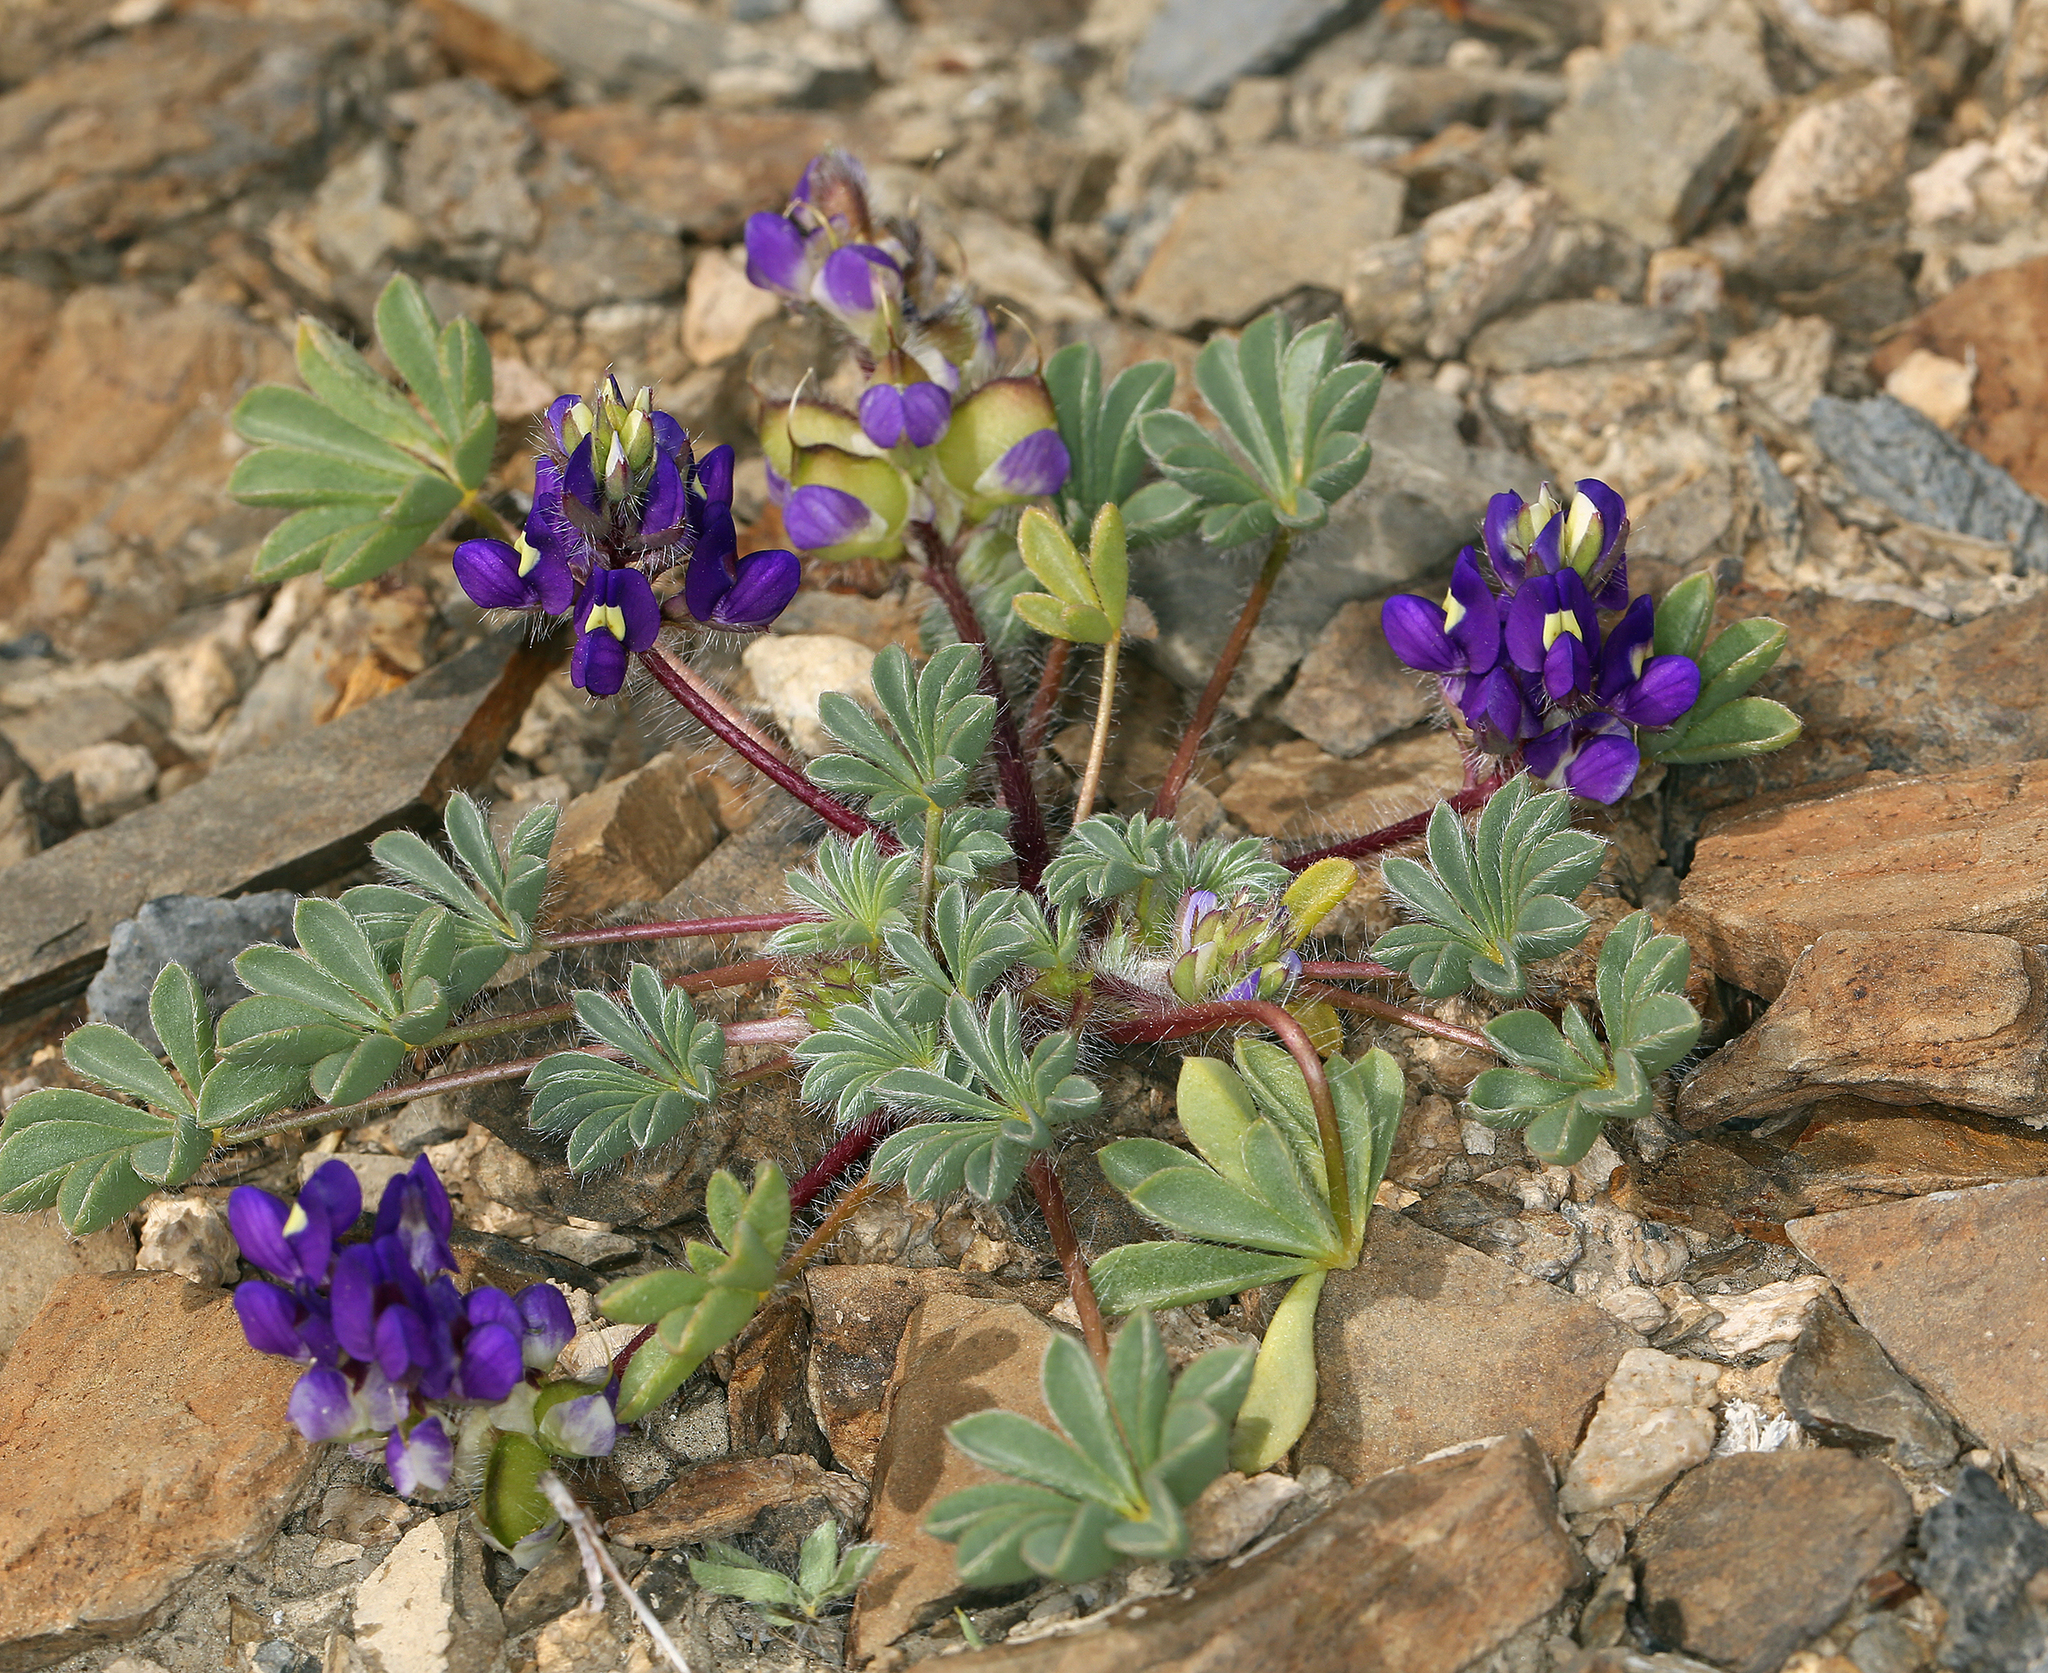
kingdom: Plantae
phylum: Tracheophyta
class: Magnoliopsida
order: Fabales
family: Fabaceae
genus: Lupinus
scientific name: Lupinus flavoculatus
